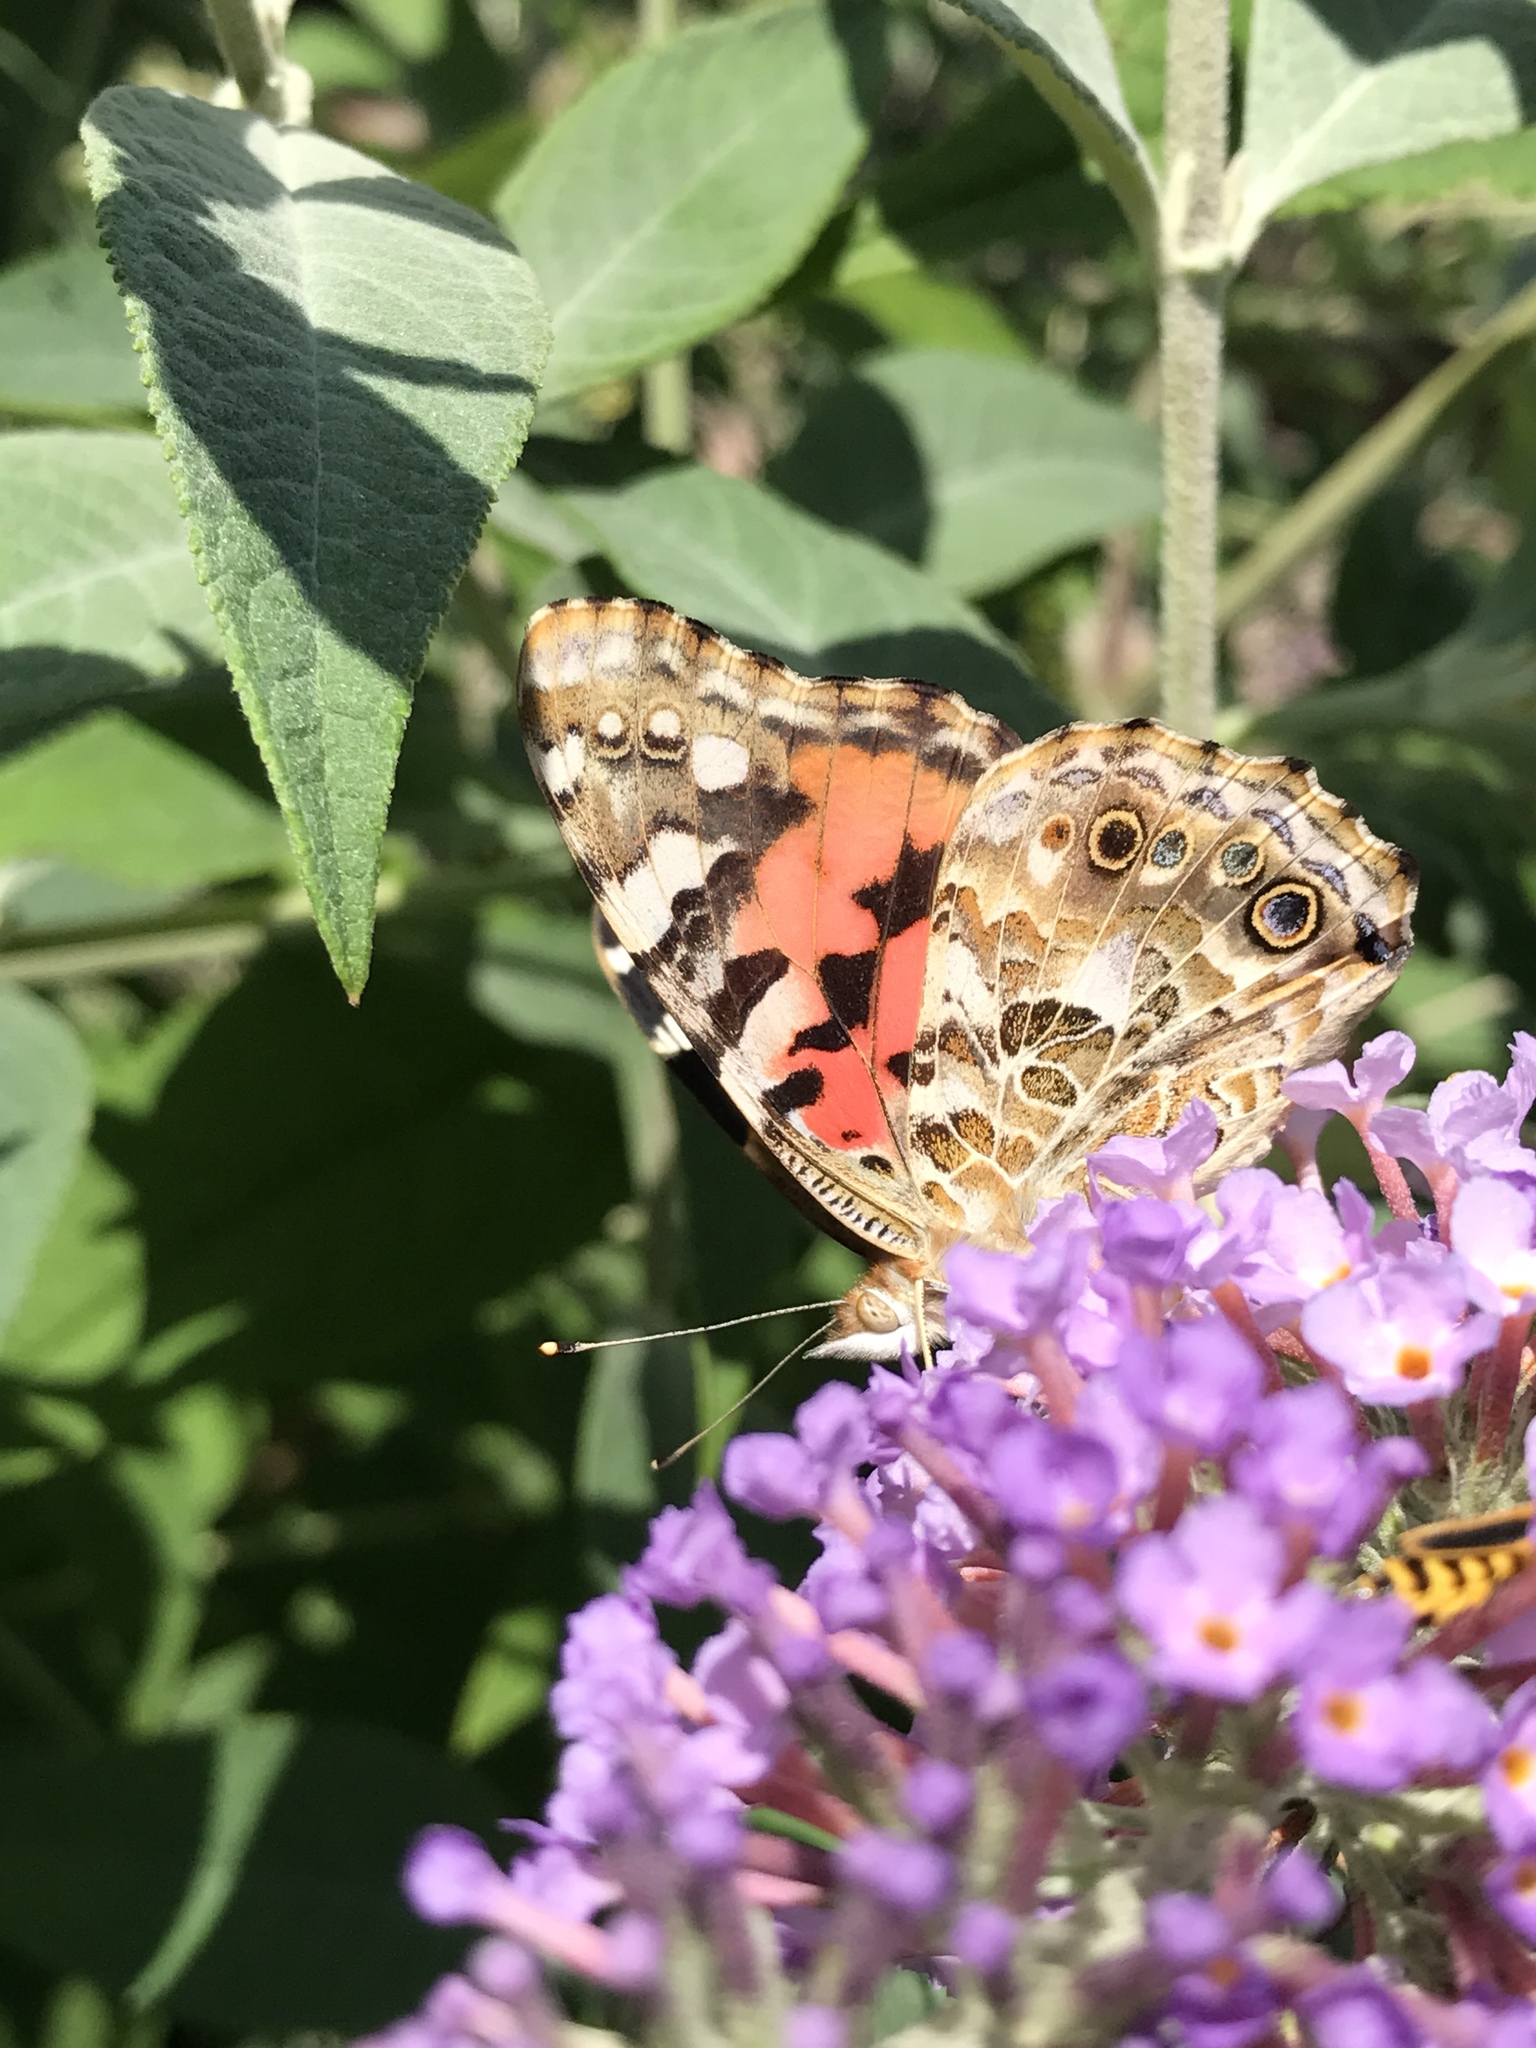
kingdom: Animalia
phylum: Arthropoda
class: Insecta
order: Lepidoptera
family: Nymphalidae
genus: Vanessa
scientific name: Vanessa cardui
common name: Painted lady
